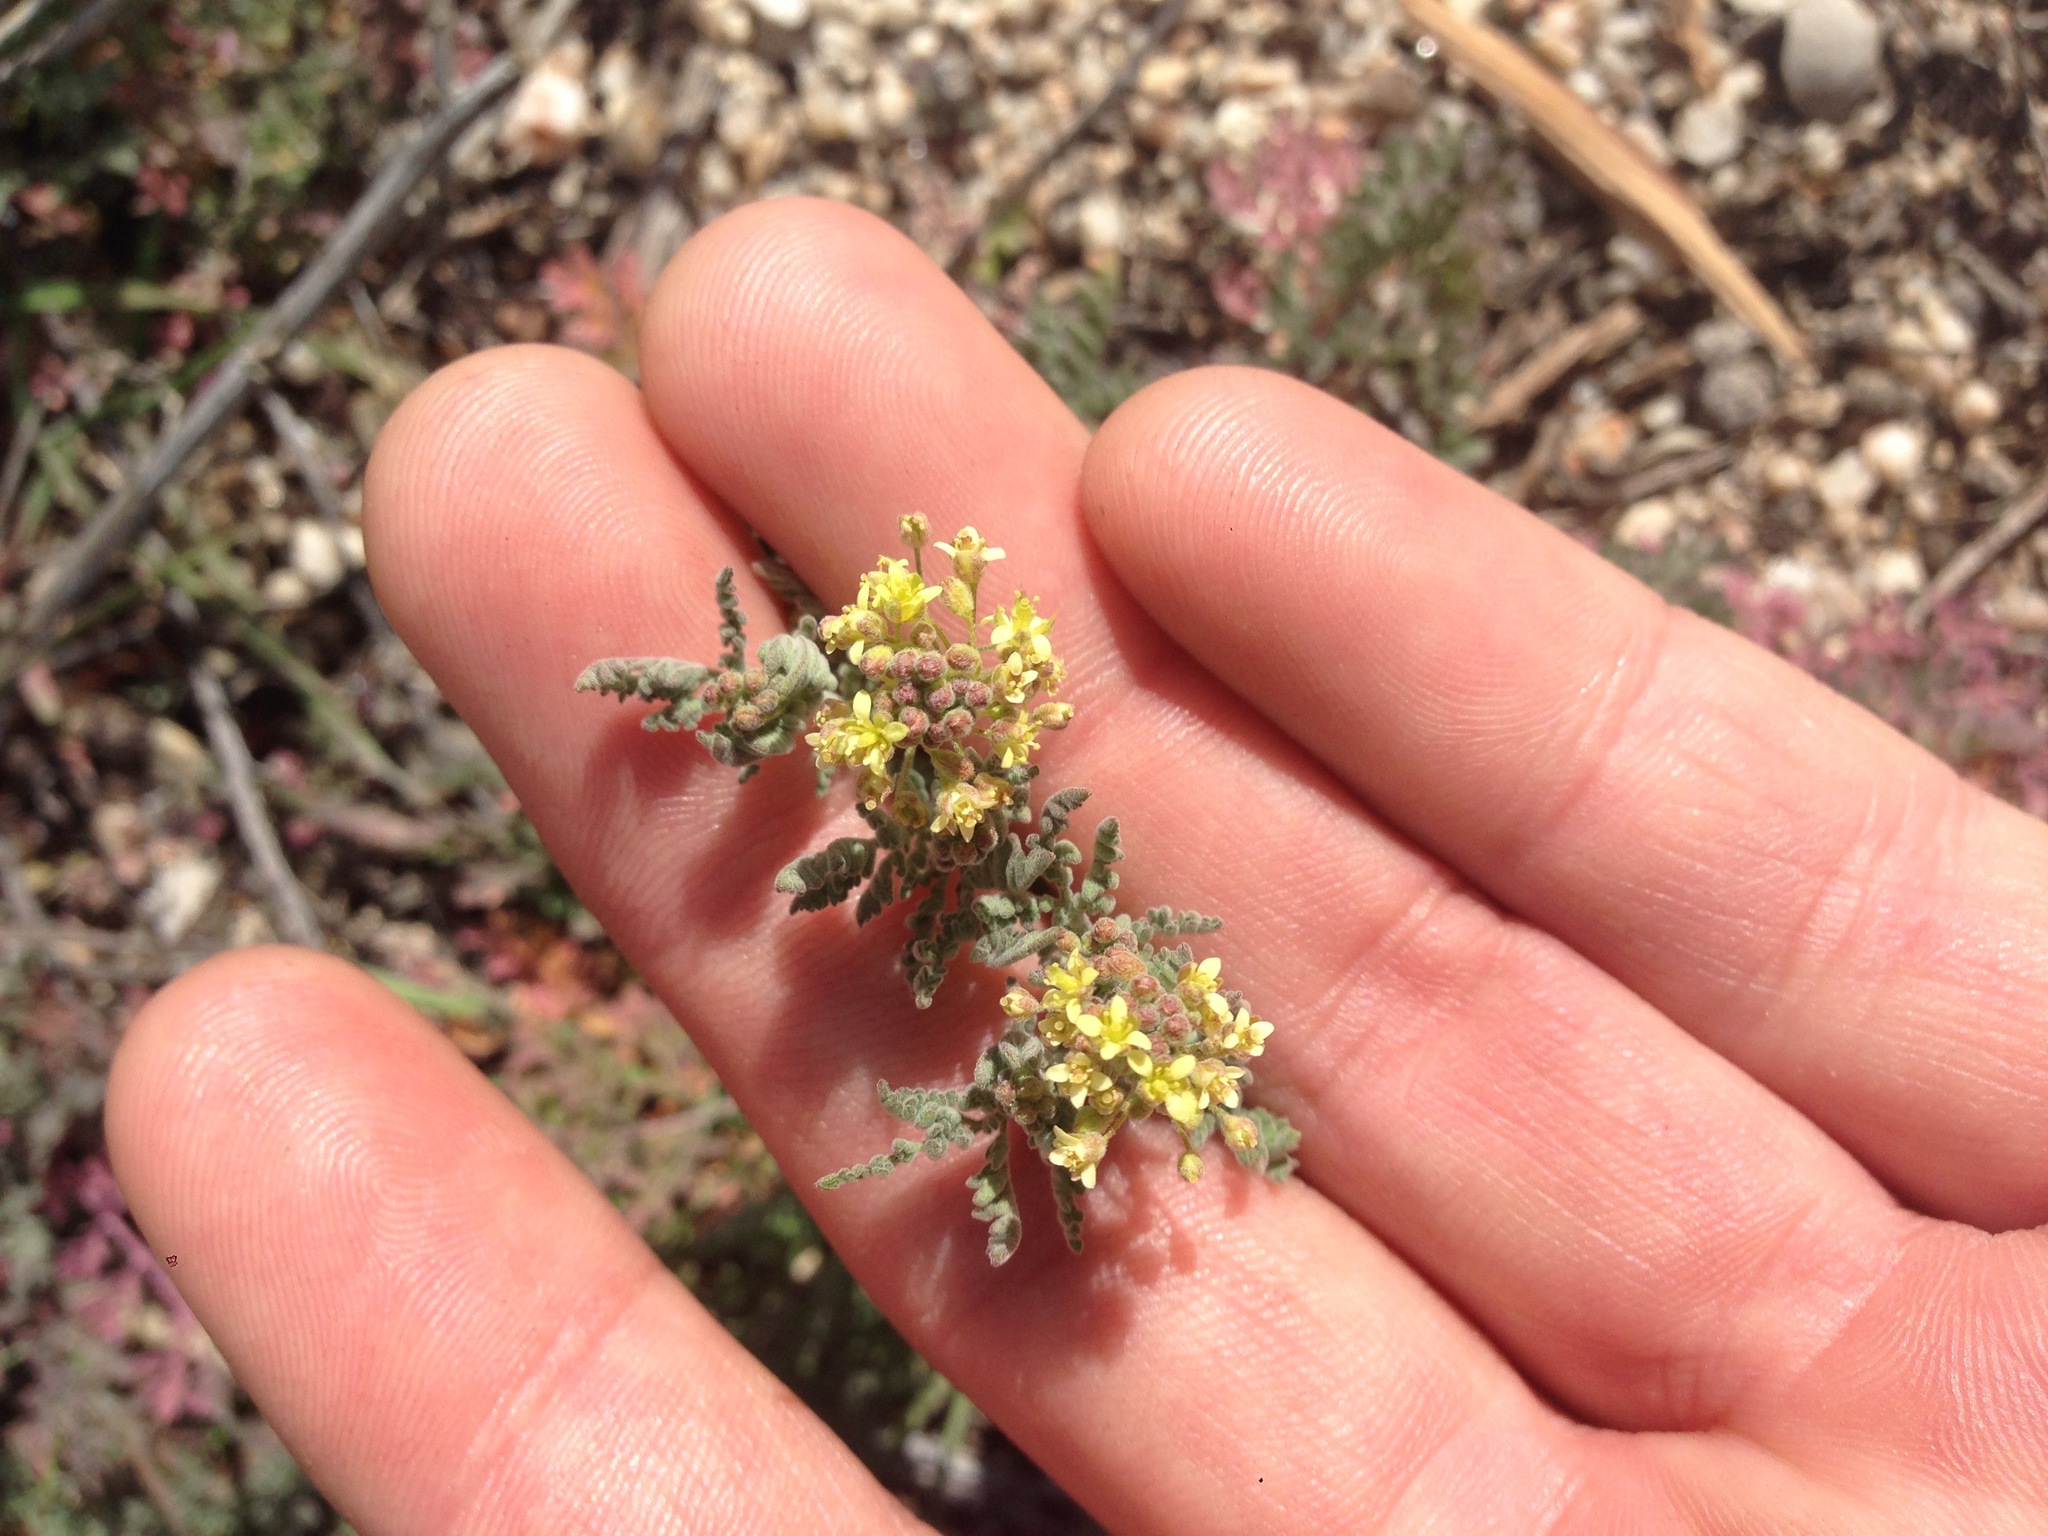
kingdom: Plantae
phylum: Tracheophyta
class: Magnoliopsida
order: Brassicales
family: Brassicaceae
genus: Descurainia
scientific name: Descurainia pinnata
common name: Western tansy mustard
